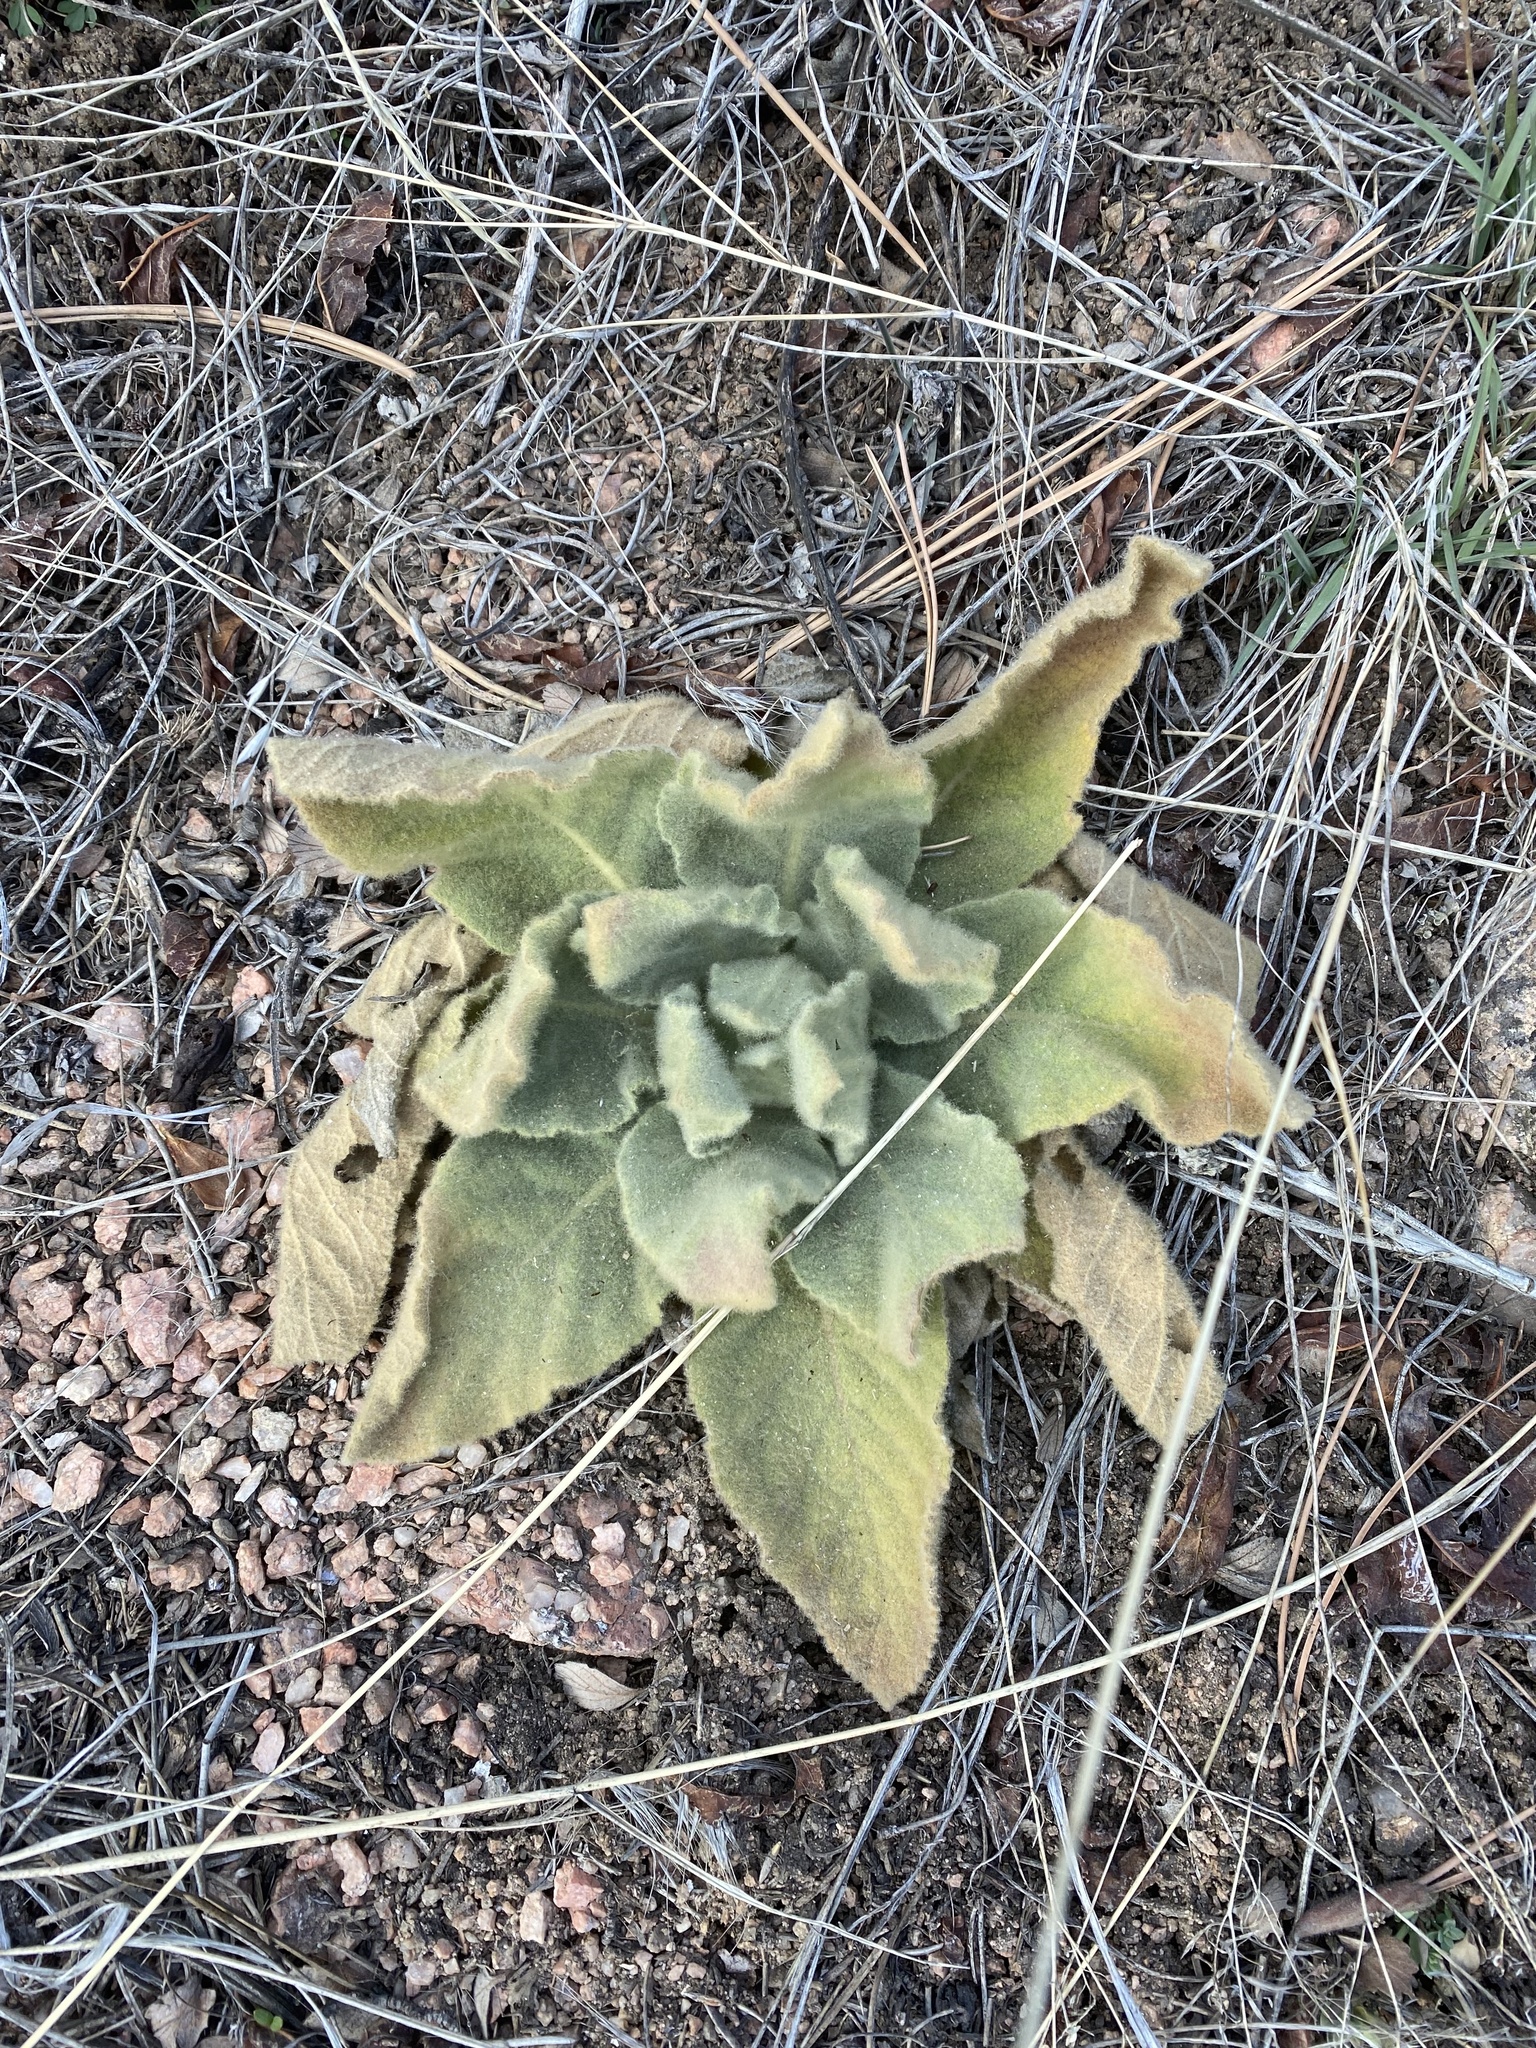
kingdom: Plantae
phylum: Tracheophyta
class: Magnoliopsida
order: Lamiales
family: Scrophulariaceae
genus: Verbascum
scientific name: Verbascum thapsus
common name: Common mullein
